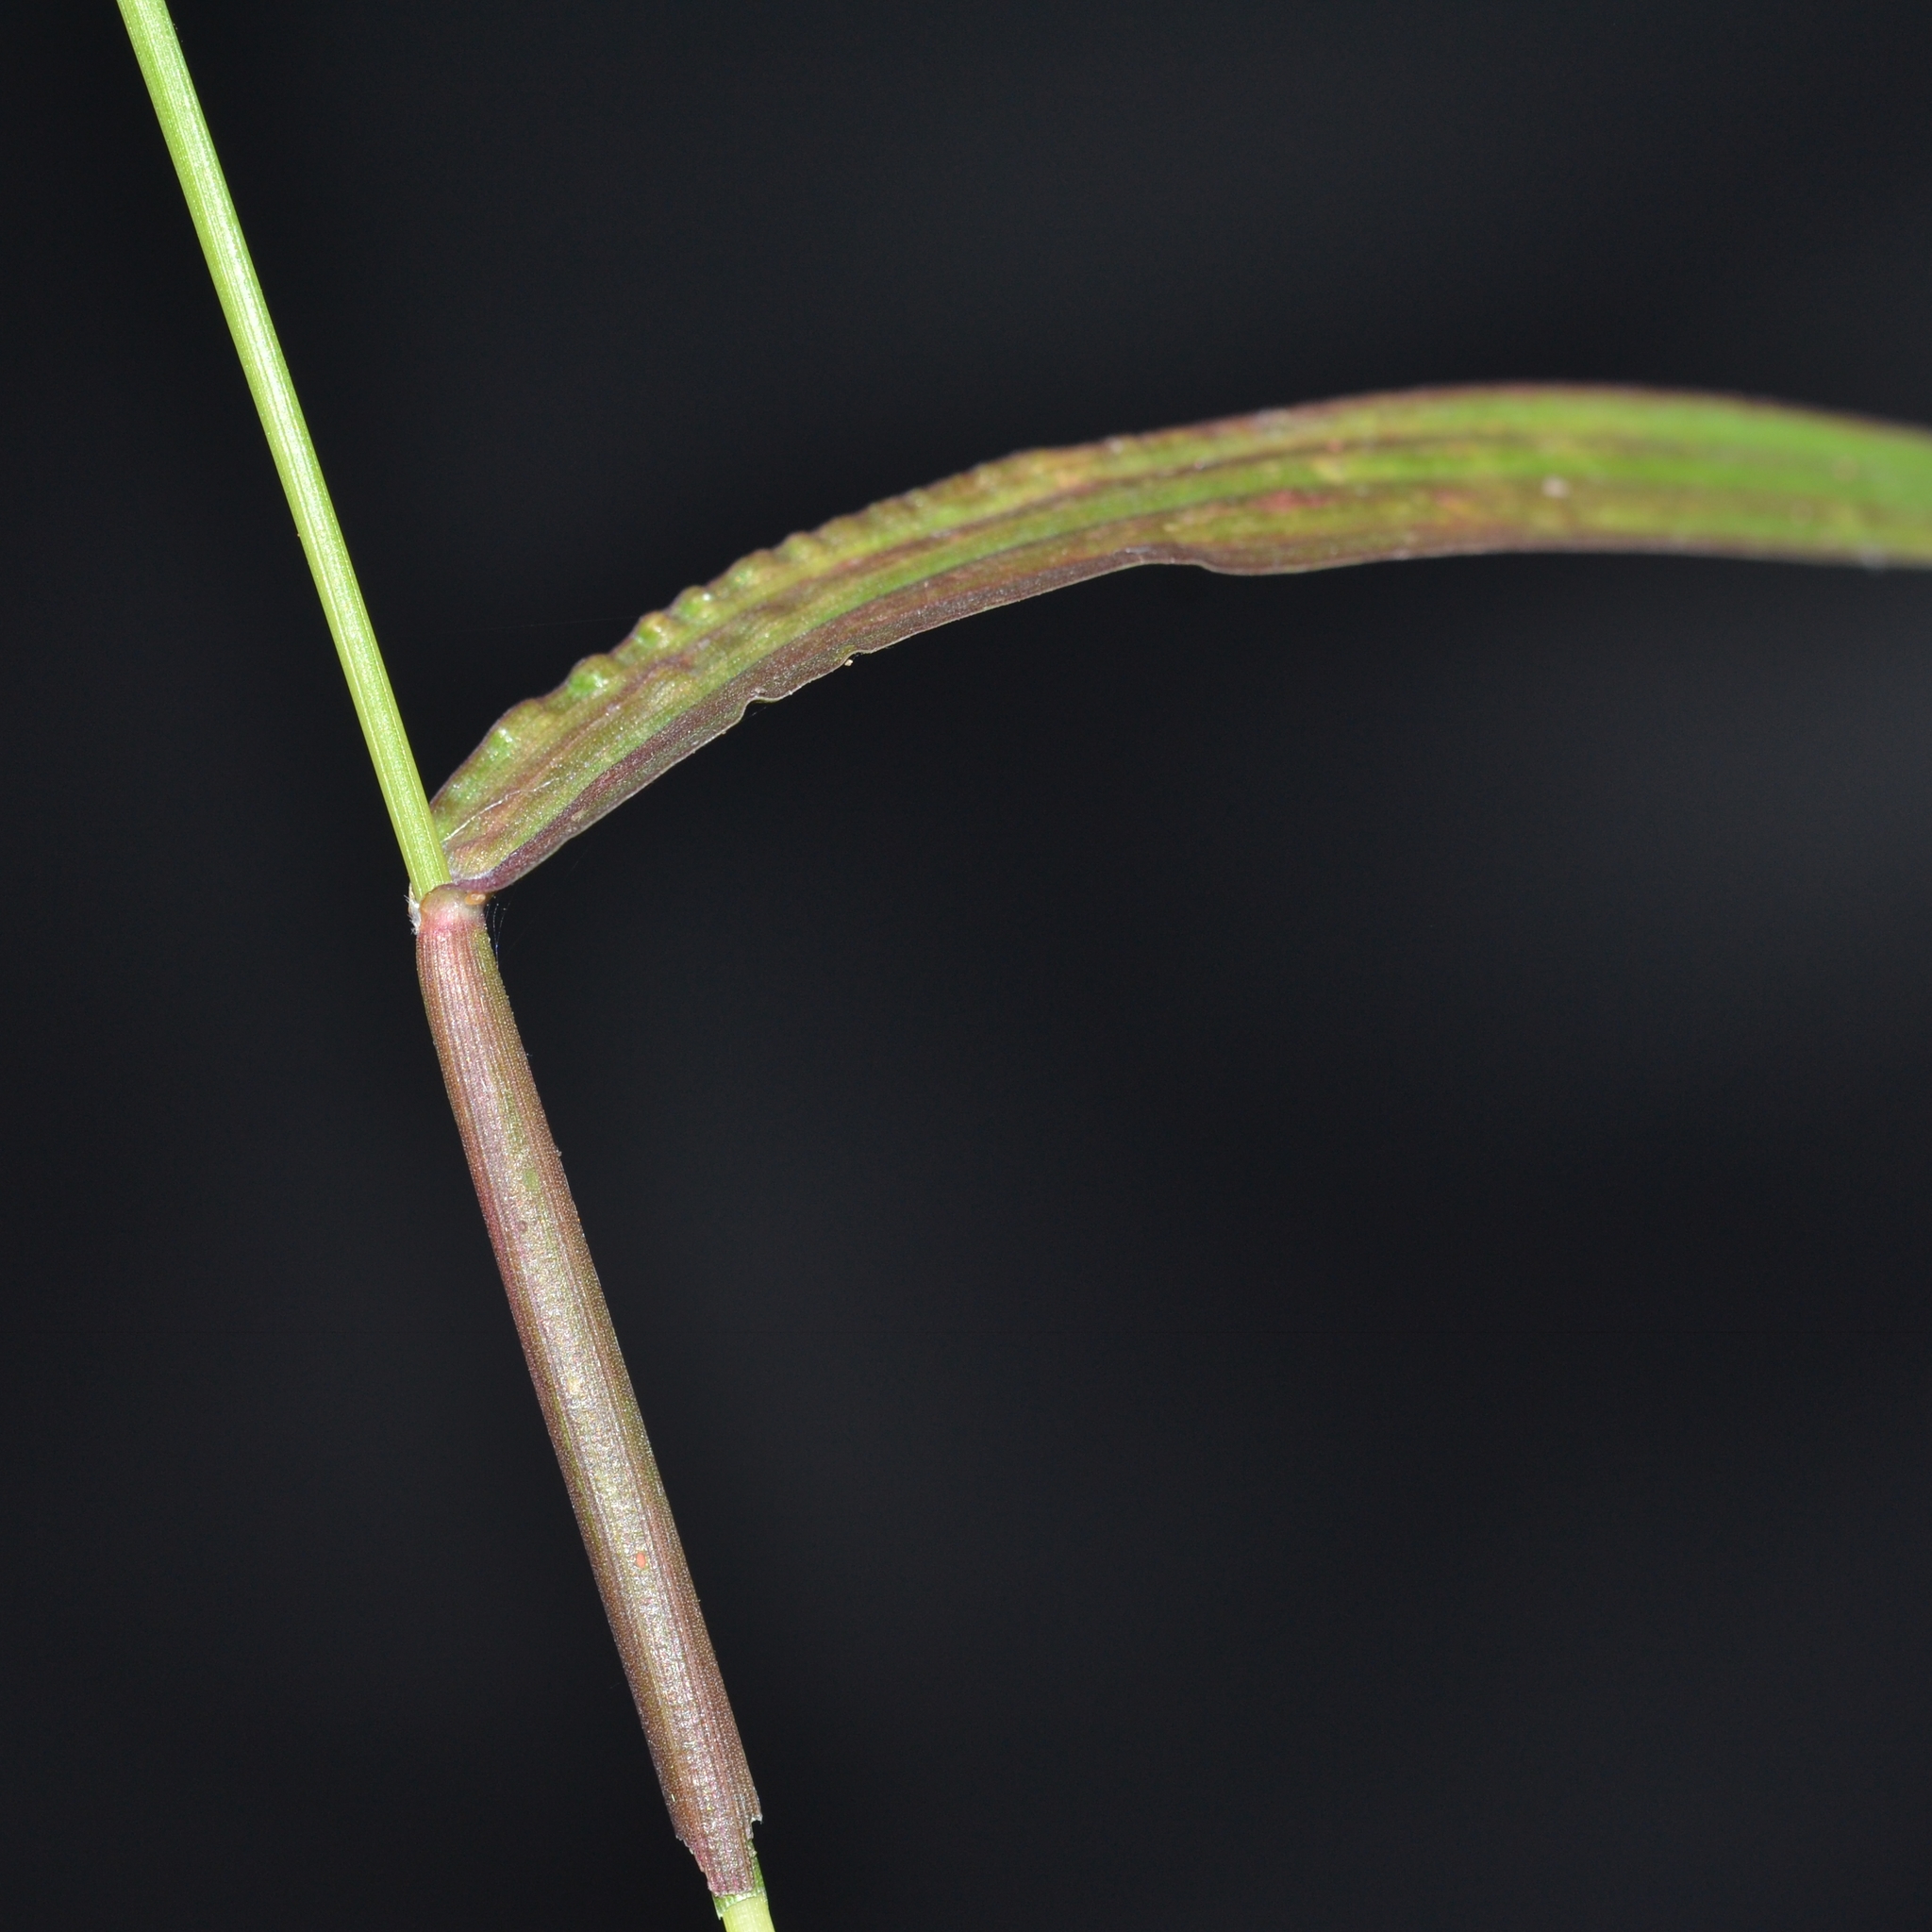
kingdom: Plantae
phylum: Tracheophyta
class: Liliopsida
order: Poales
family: Poaceae
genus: Cenchrus
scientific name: Cenchrus echinatus
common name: Southern sandbur
